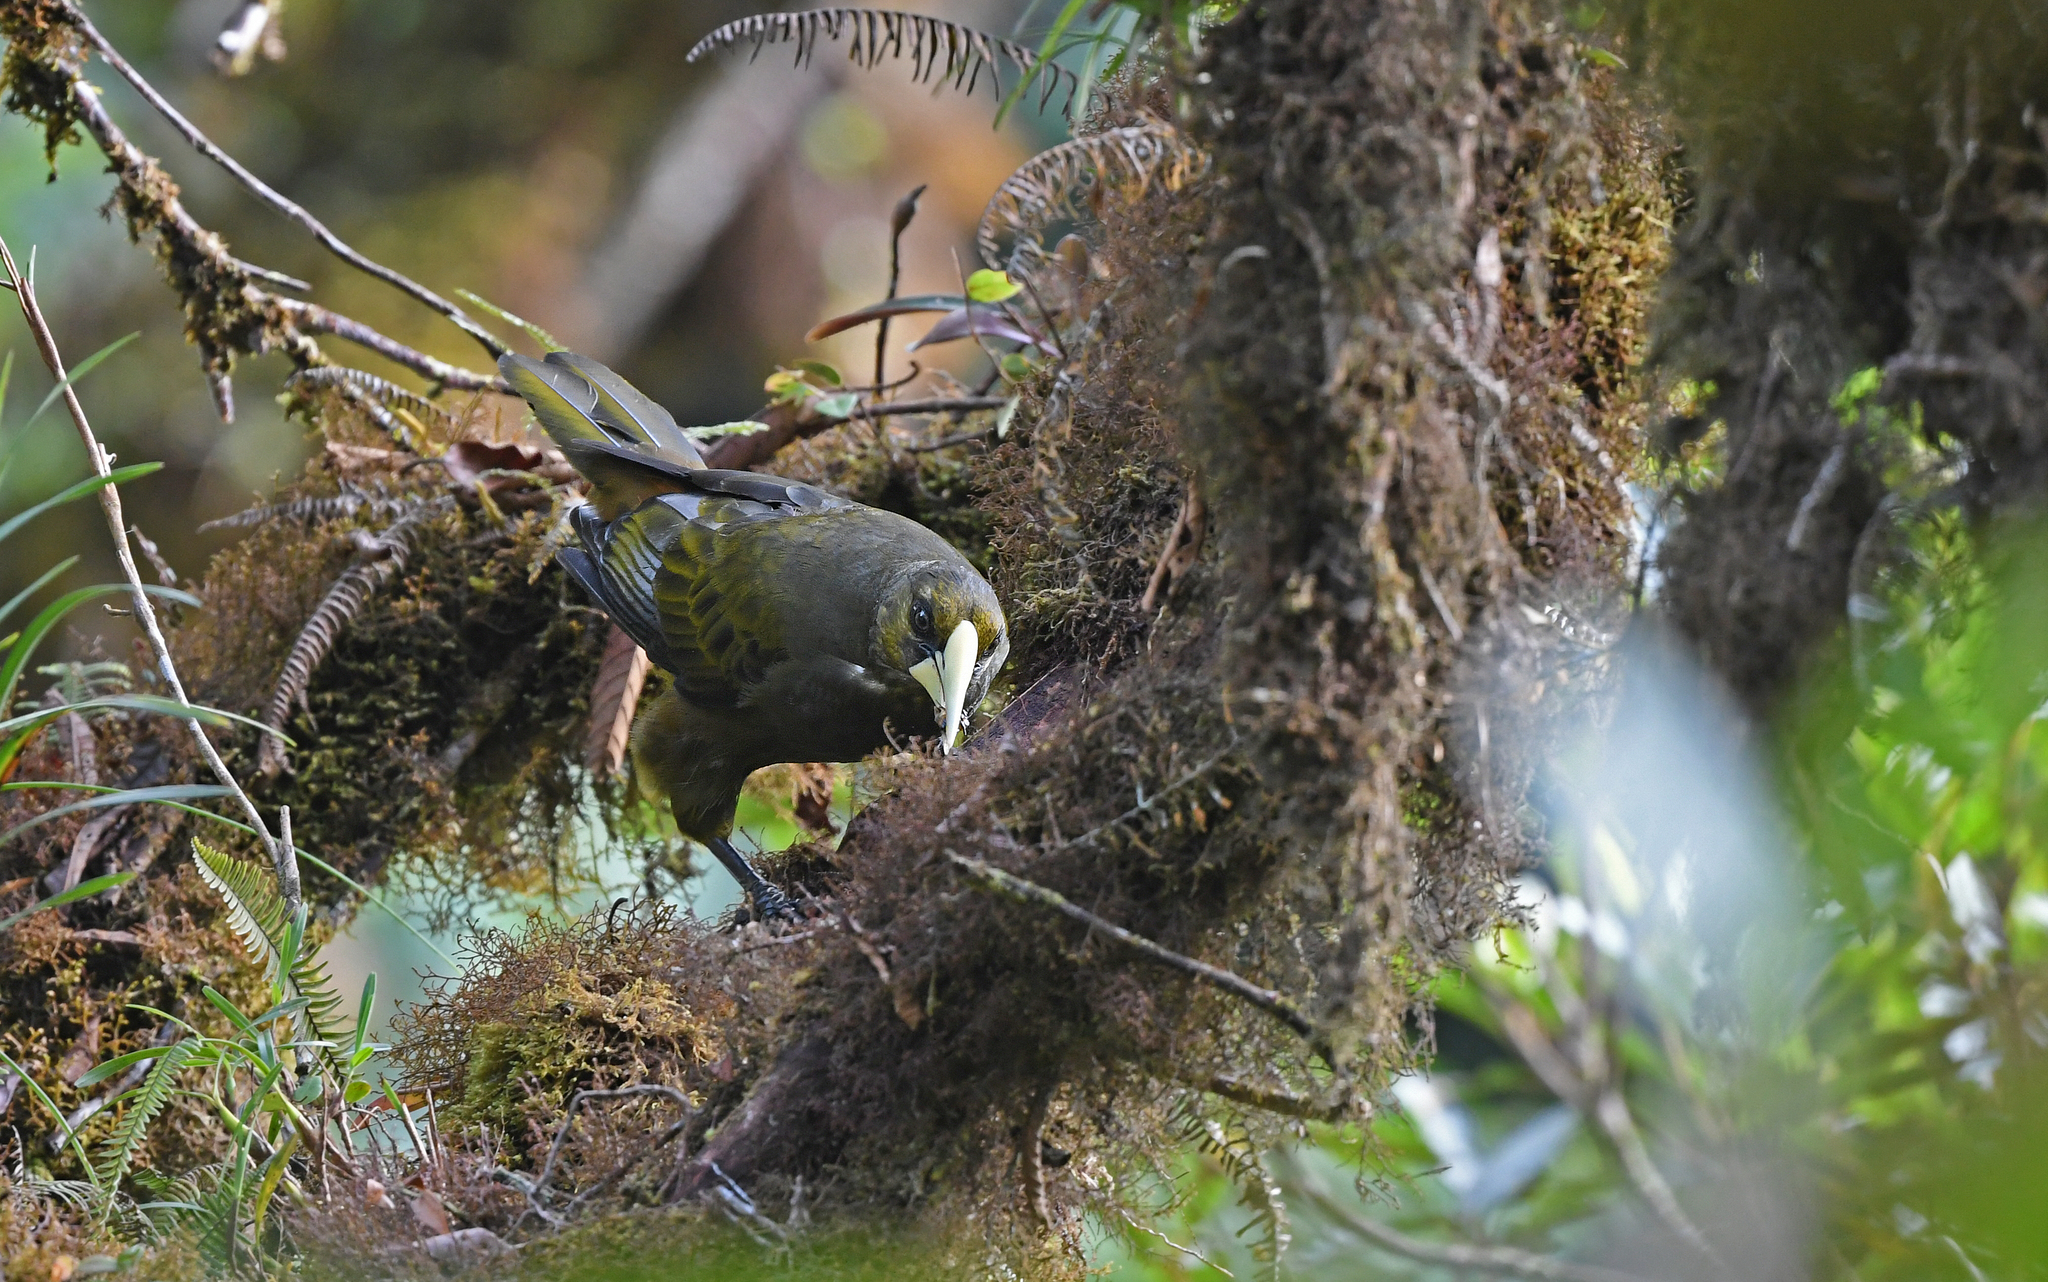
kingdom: Animalia
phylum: Chordata
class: Aves
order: Passeriformes
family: Icteridae
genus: Psarocolius
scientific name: Psarocolius atrovirens
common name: Dusky-green oropendola
